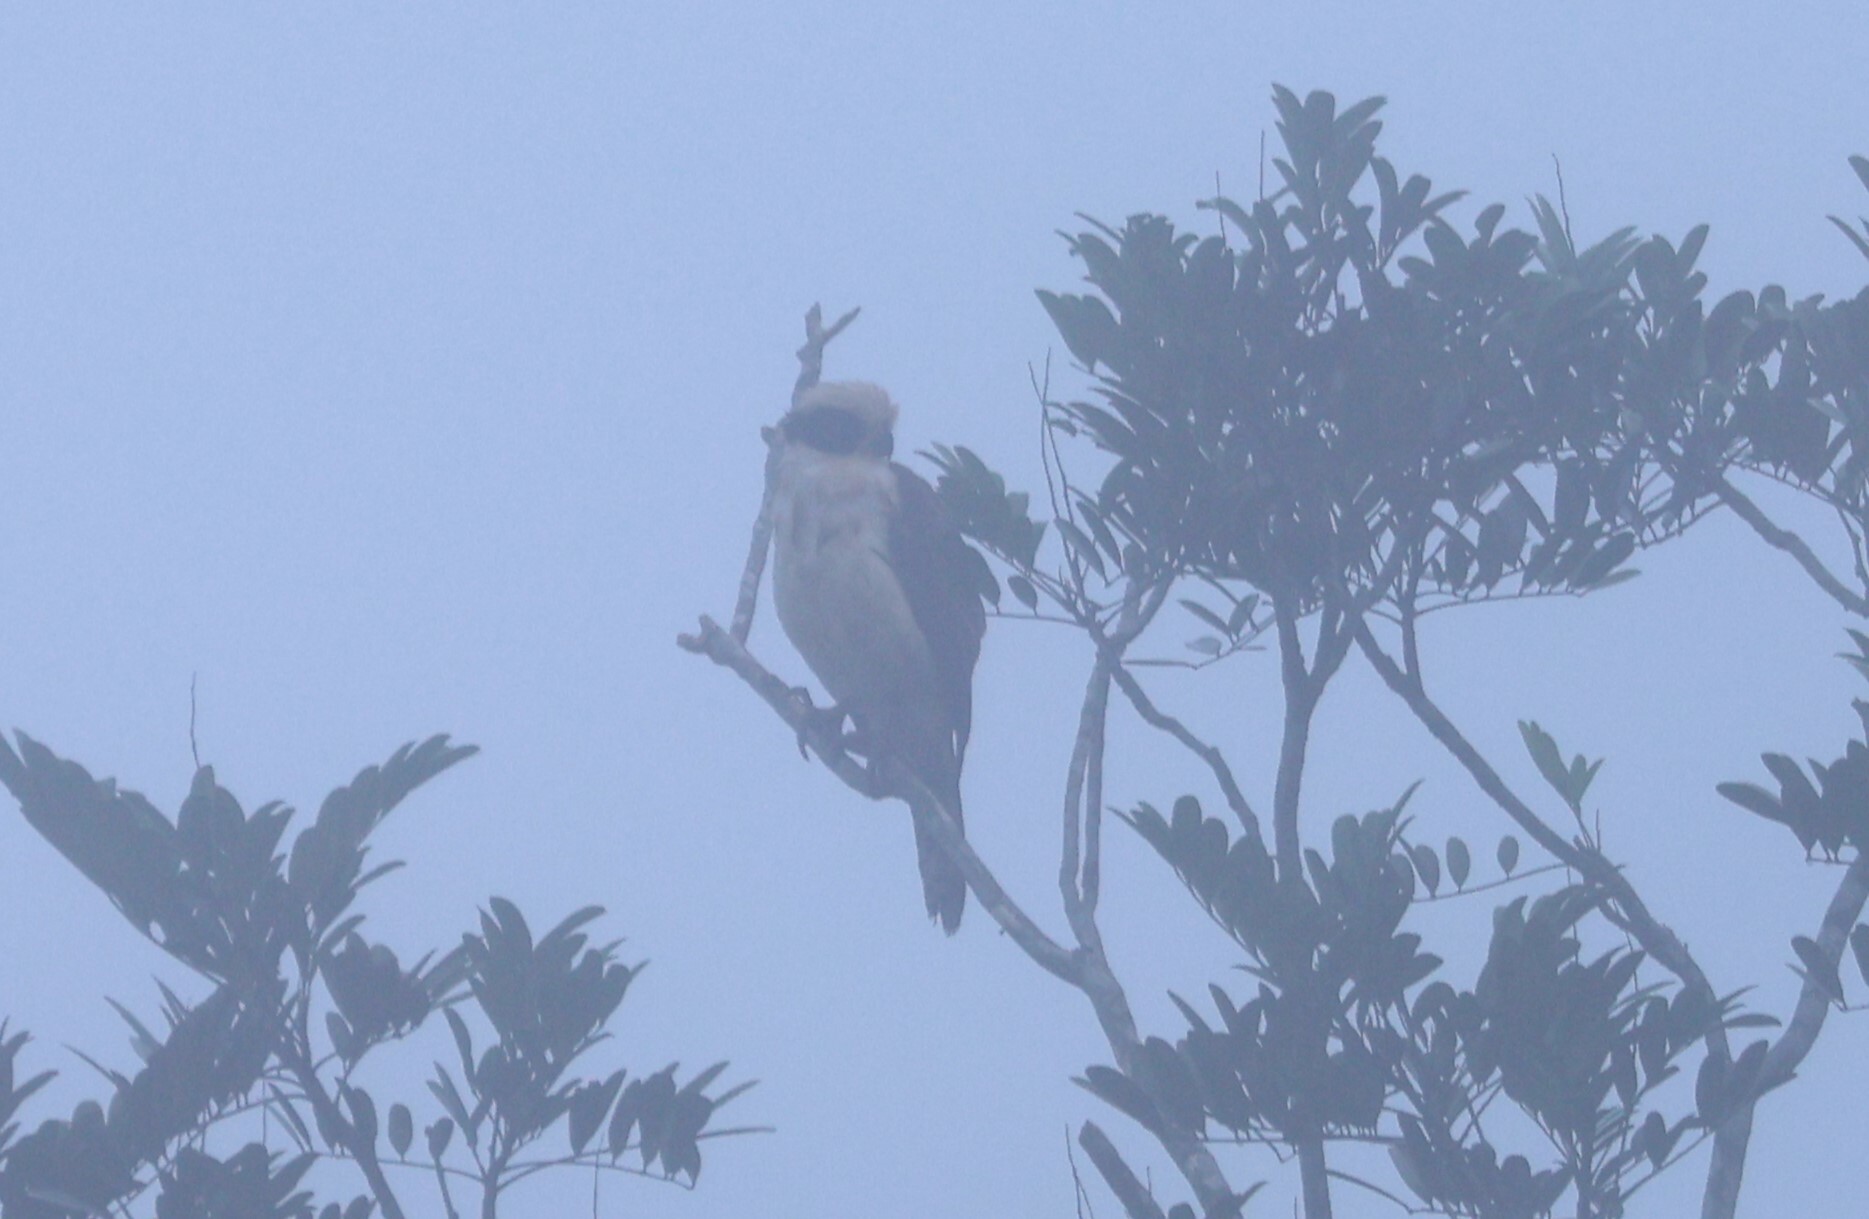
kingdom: Animalia
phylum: Chordata
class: Aves
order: Falconiformes
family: Falconidae
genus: Herpetotheres
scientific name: Herpetotheres cachinnans
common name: Laughing falcon
